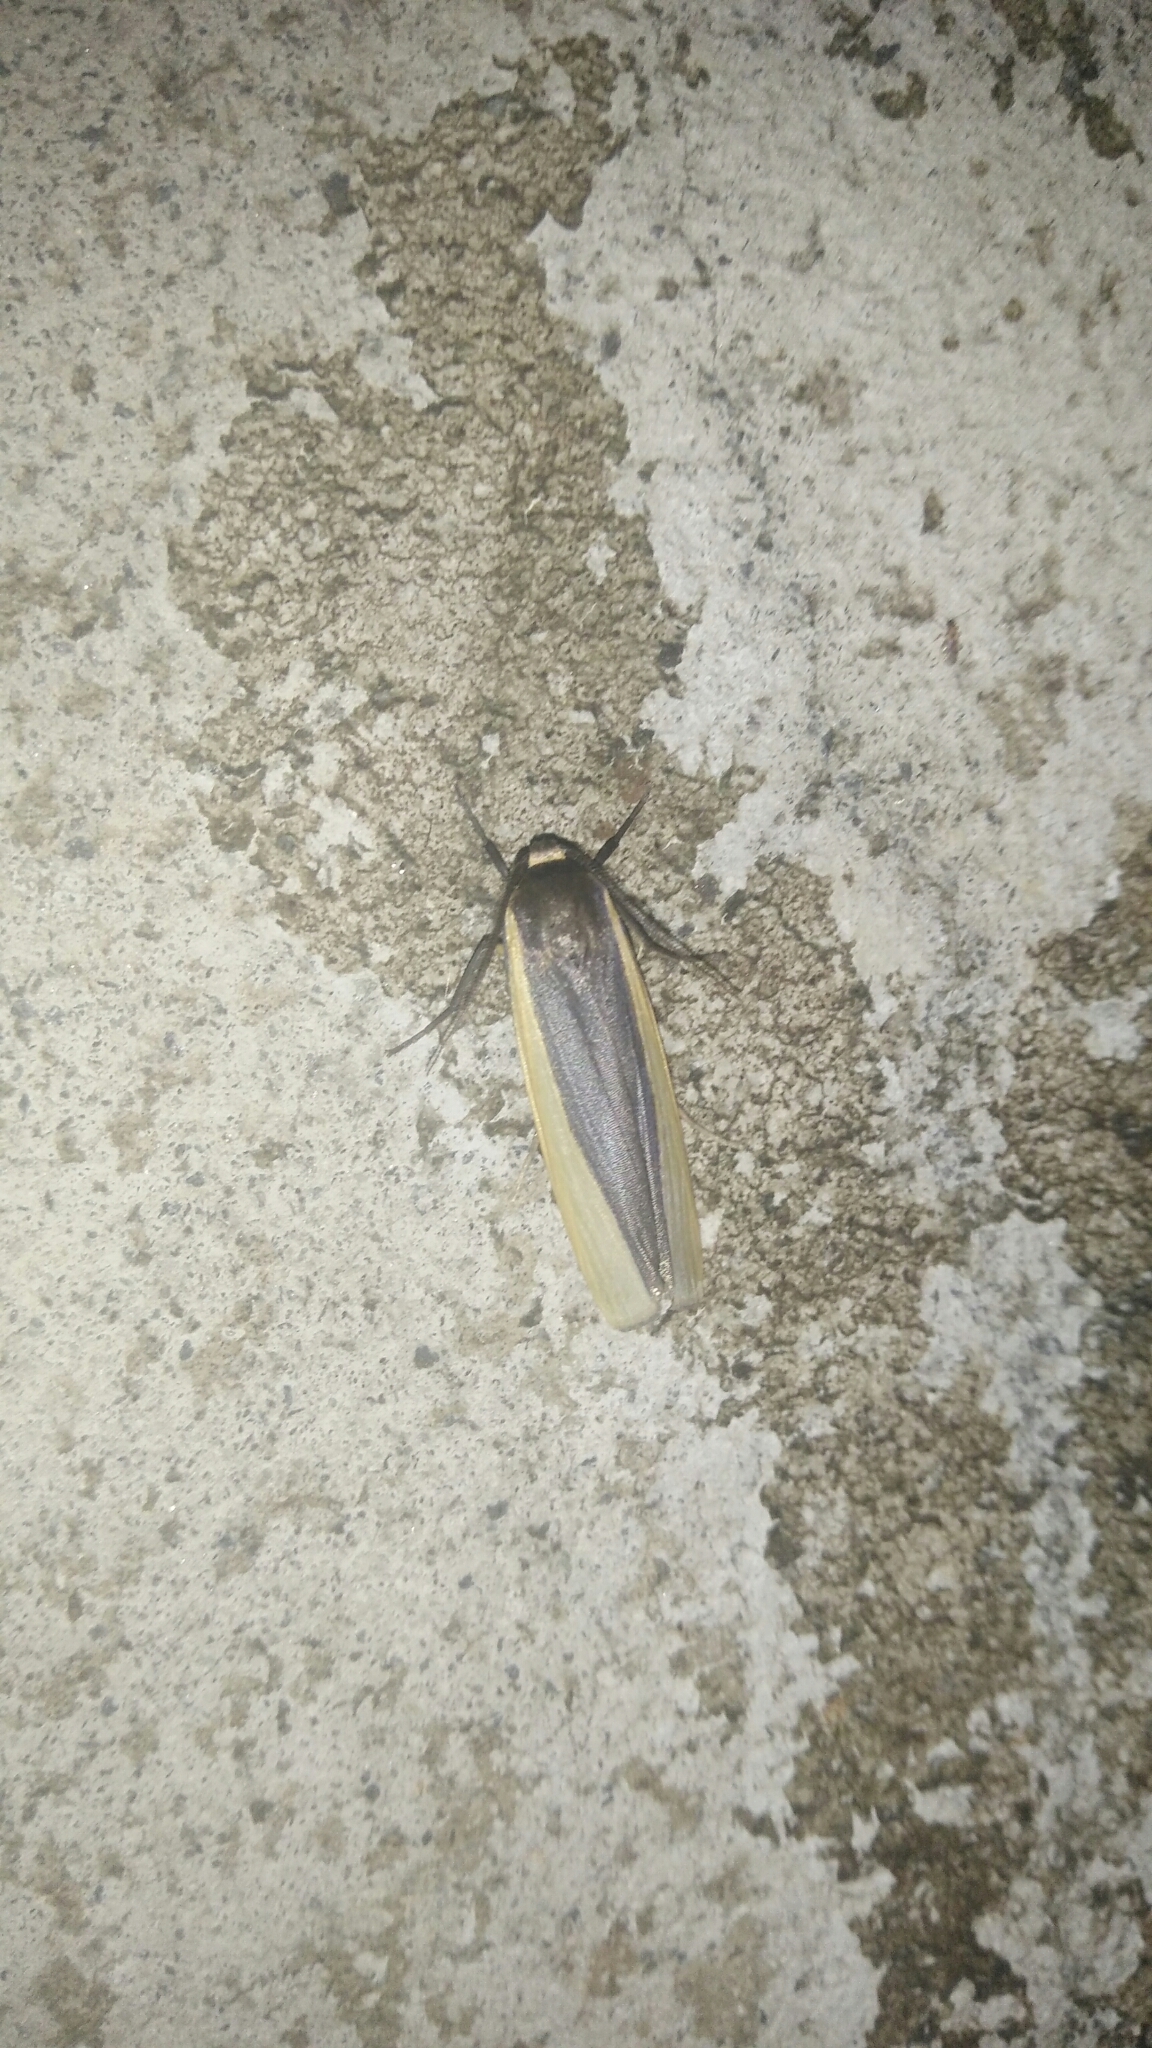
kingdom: Animalia
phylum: Arthropoda
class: Insecta
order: Lepidoptera
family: Erebidae
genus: Hesudra
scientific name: Hesudra divisa
